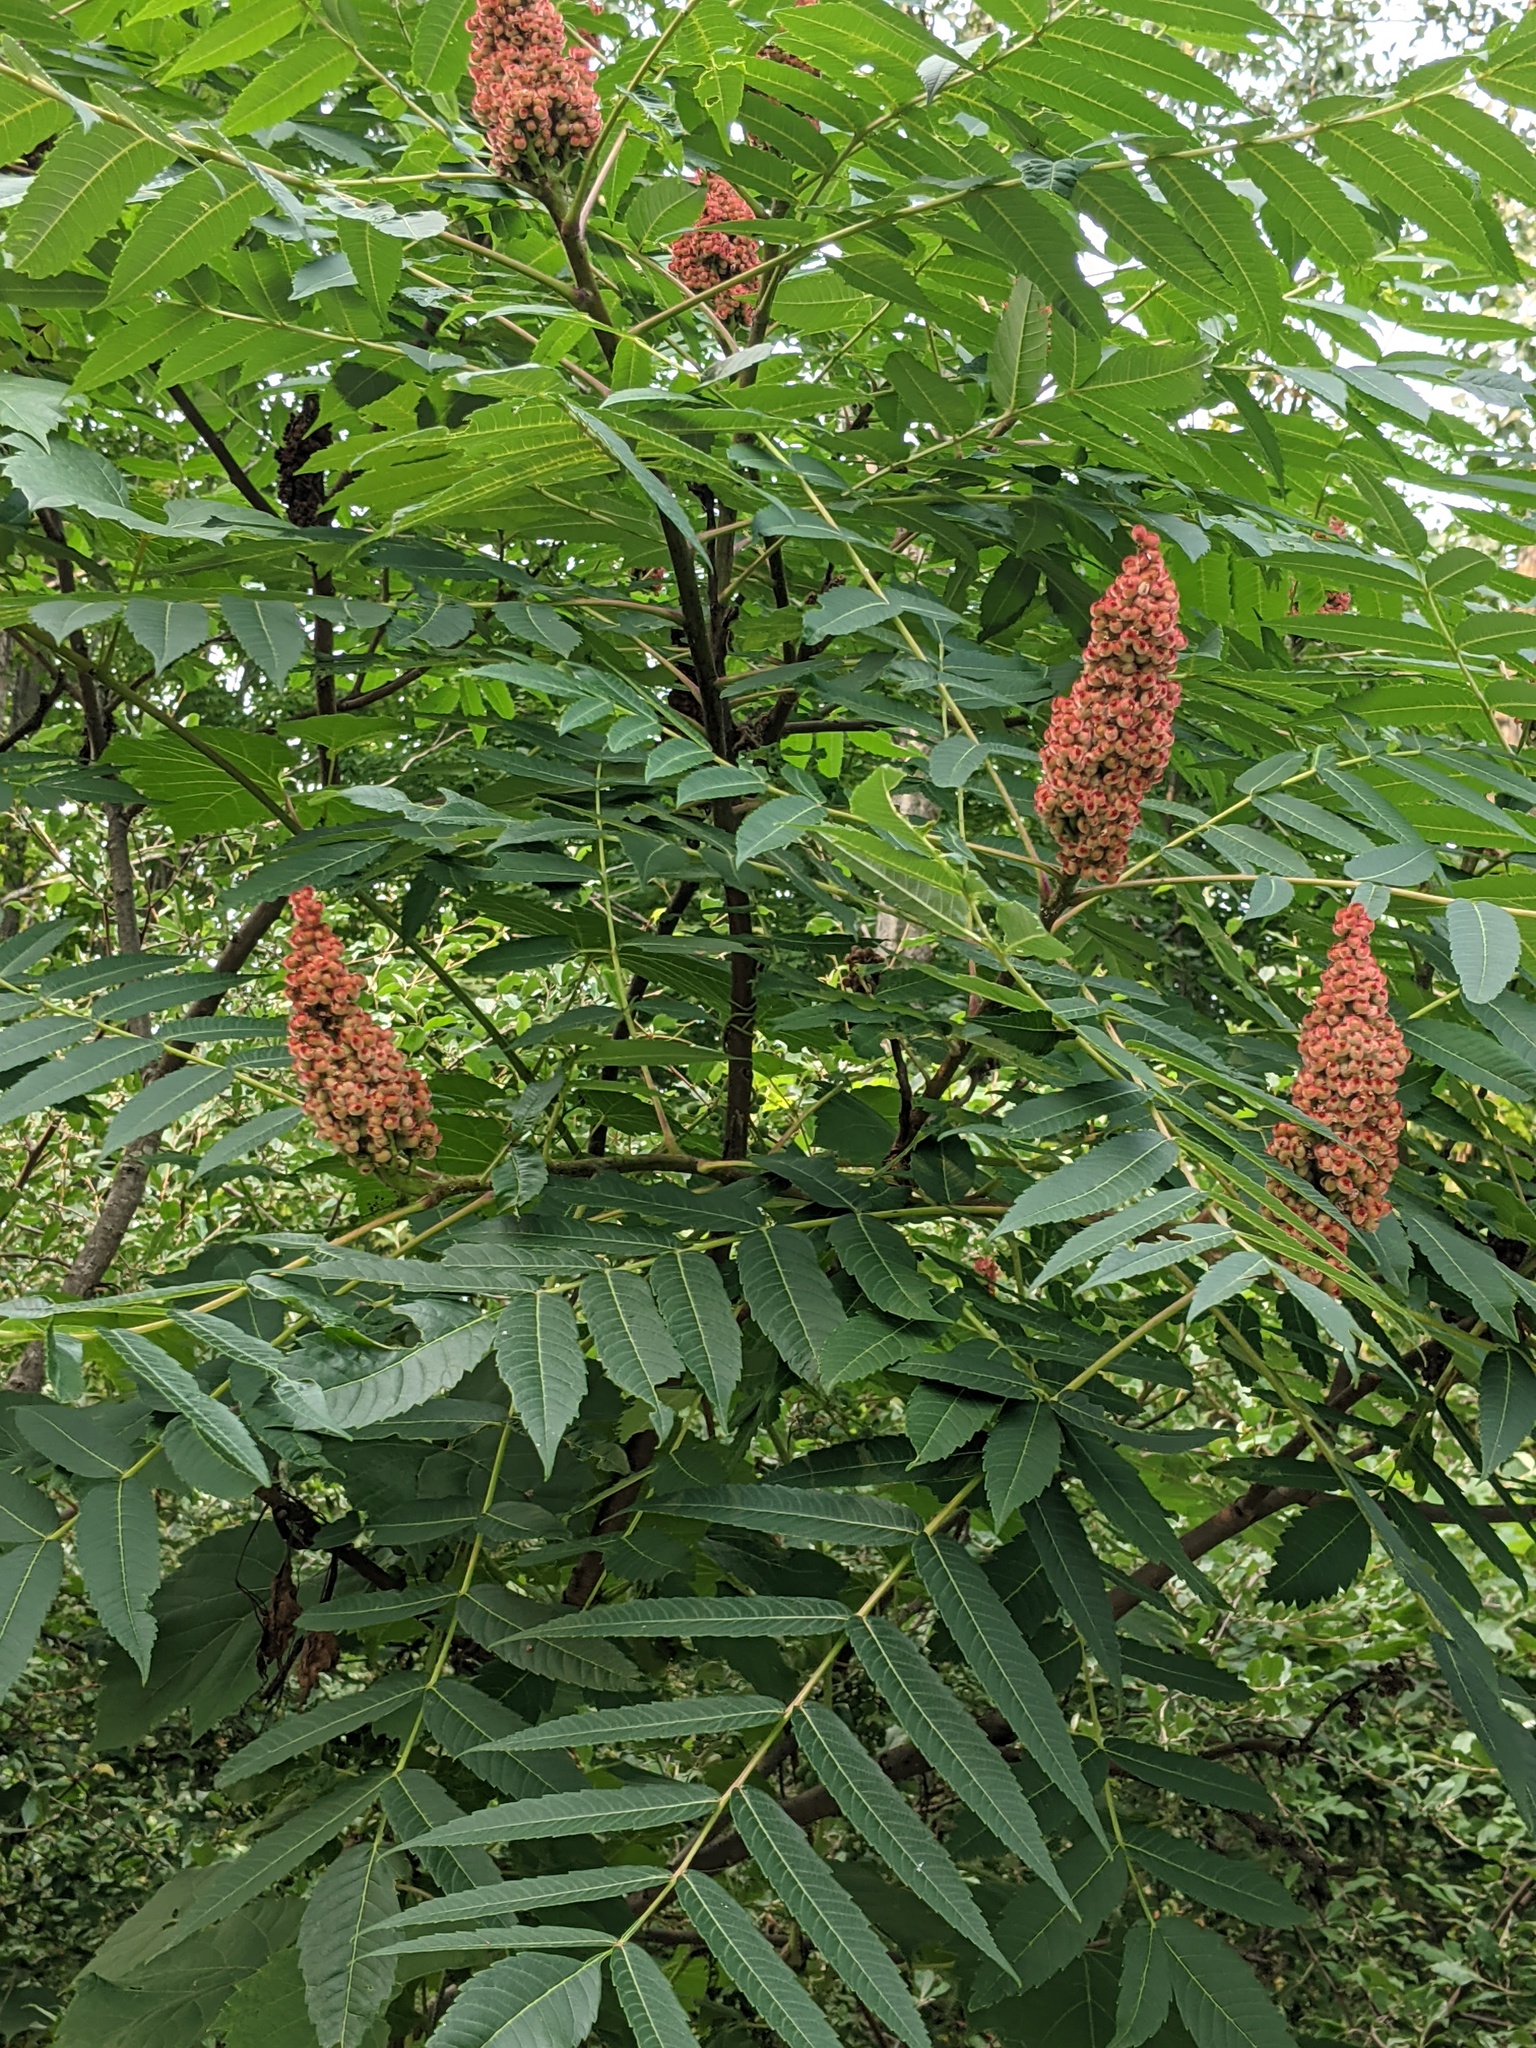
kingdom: Plantae
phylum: Tracheophyta
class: Magnoliopsida
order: Sapindales
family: Anacardiaceae
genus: Rhus
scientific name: Rhus typhina
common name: Staghorn sumac
